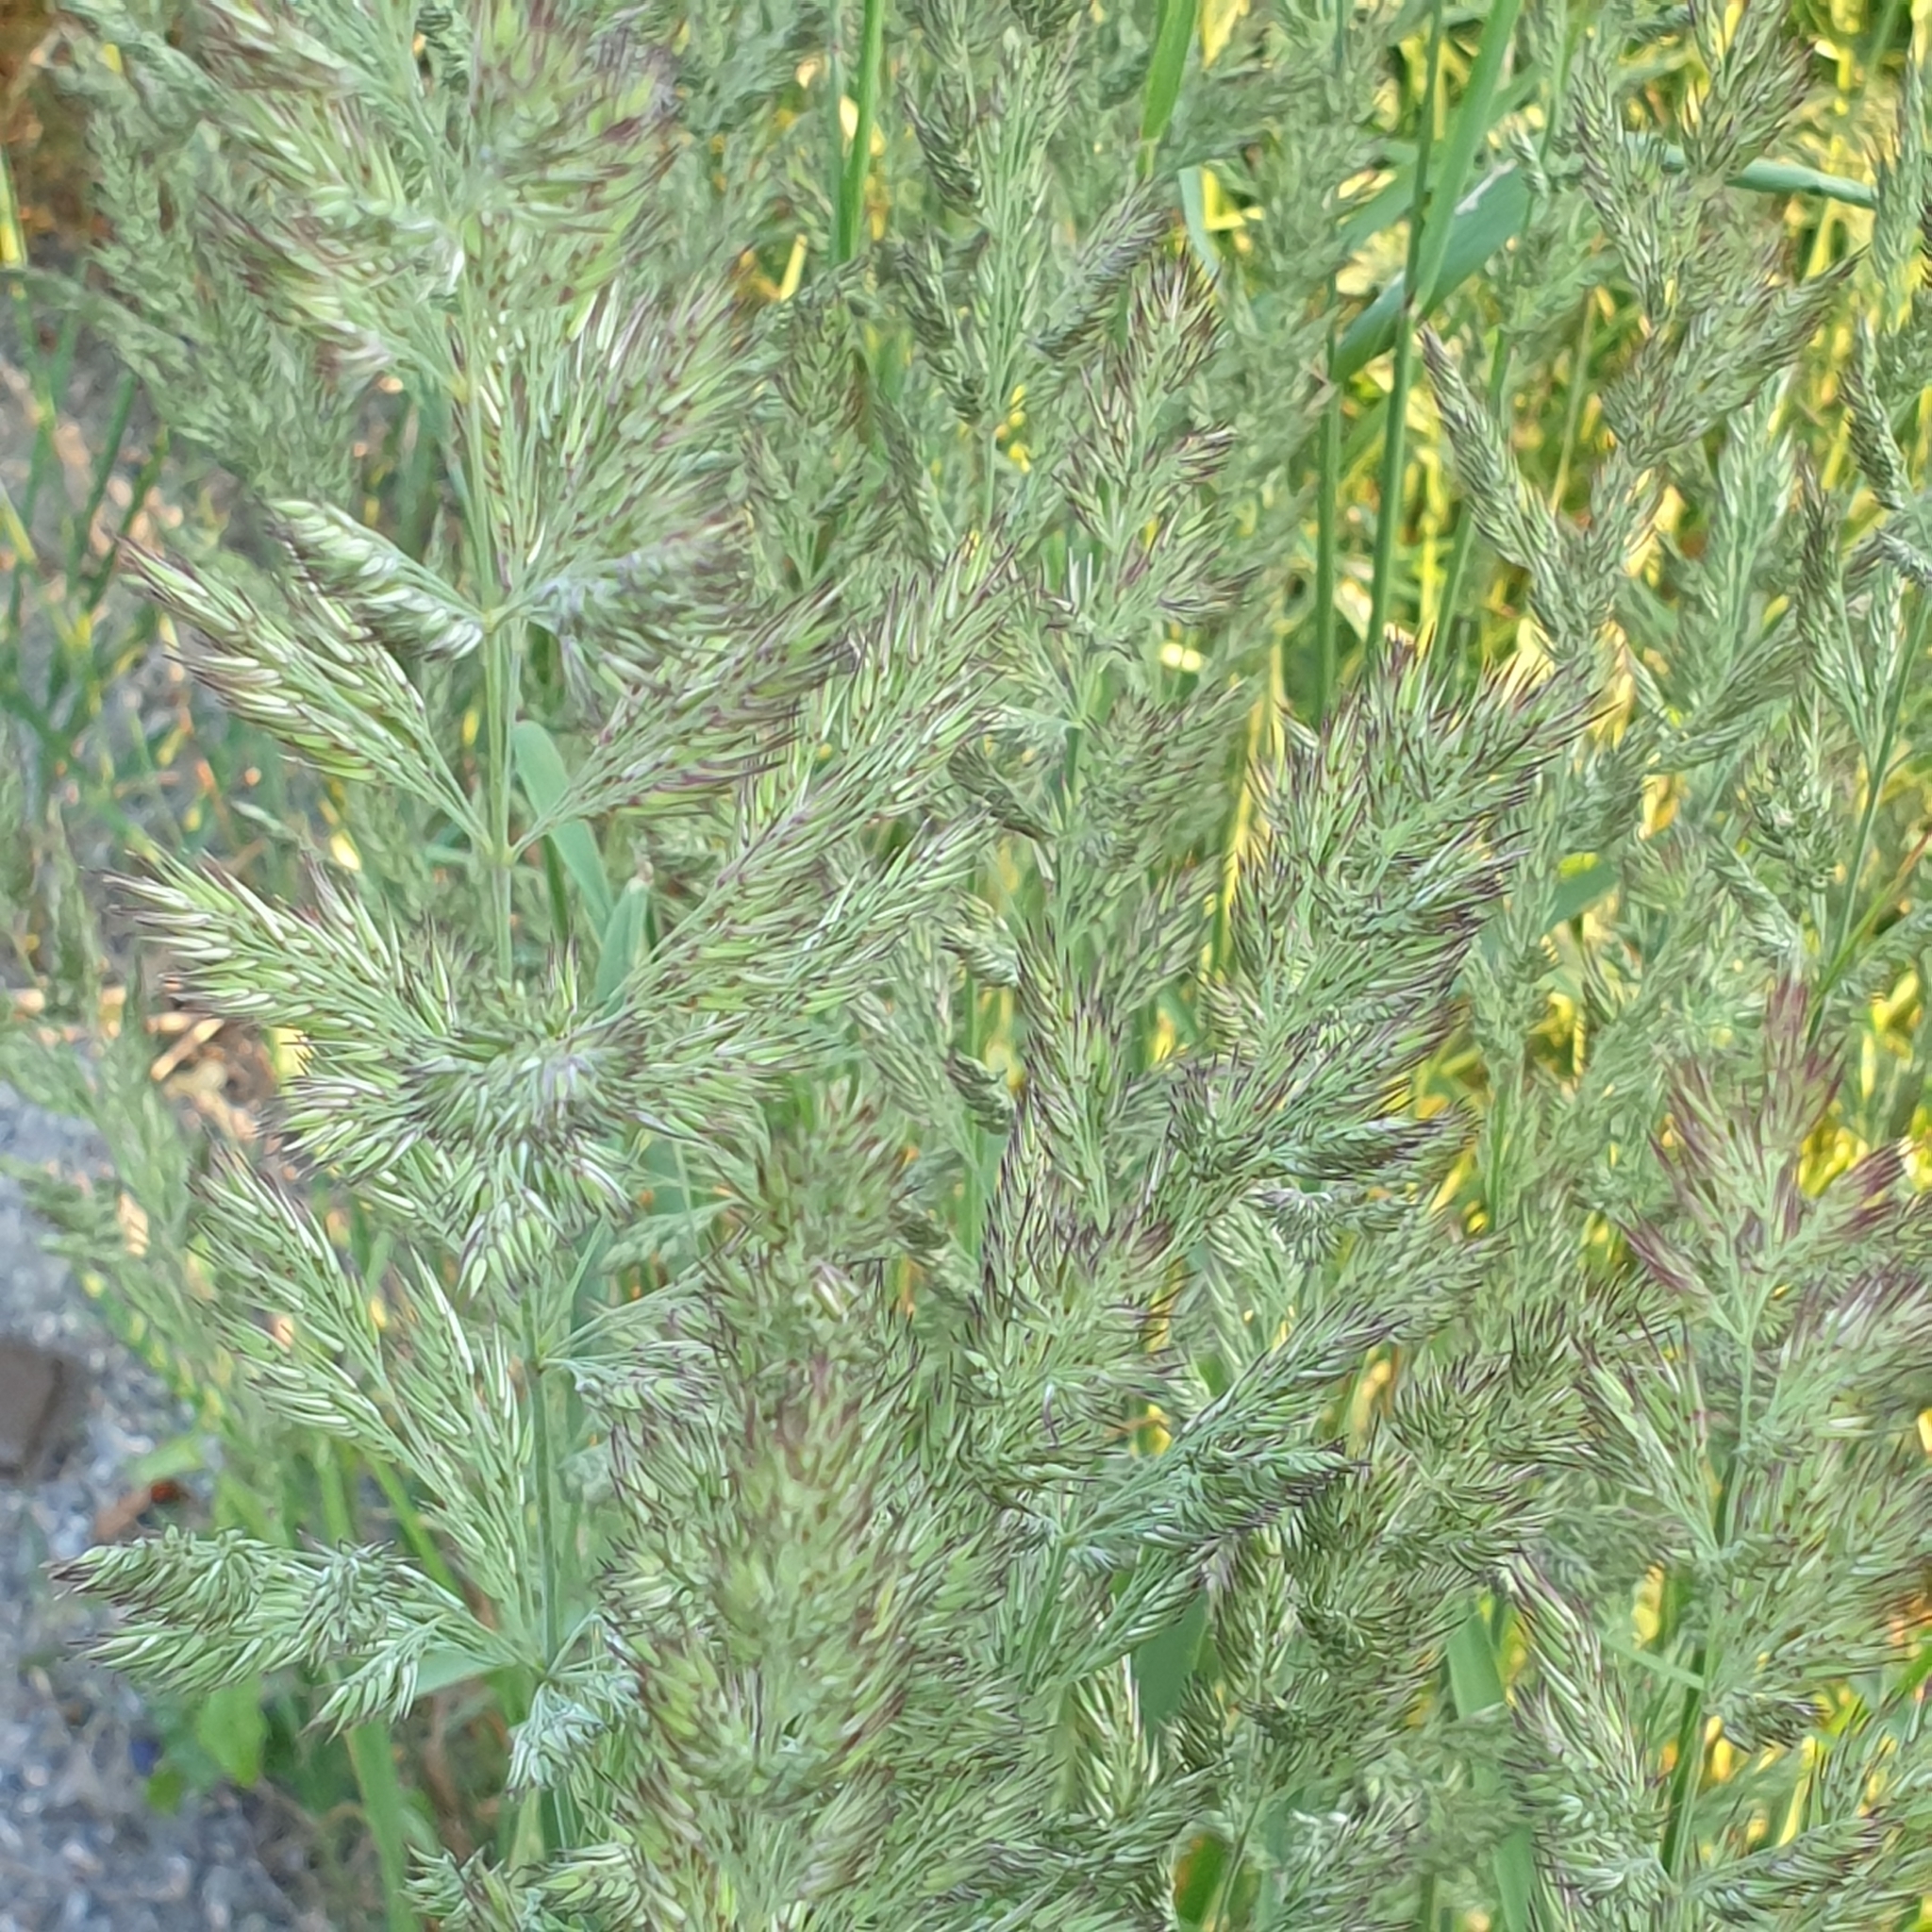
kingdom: Plantae
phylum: Tracheophyta
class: Liliopsida
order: Poales
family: Poaceae
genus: Calamagrostis
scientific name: Calamagrostis epigejos
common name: Wood small-reed
